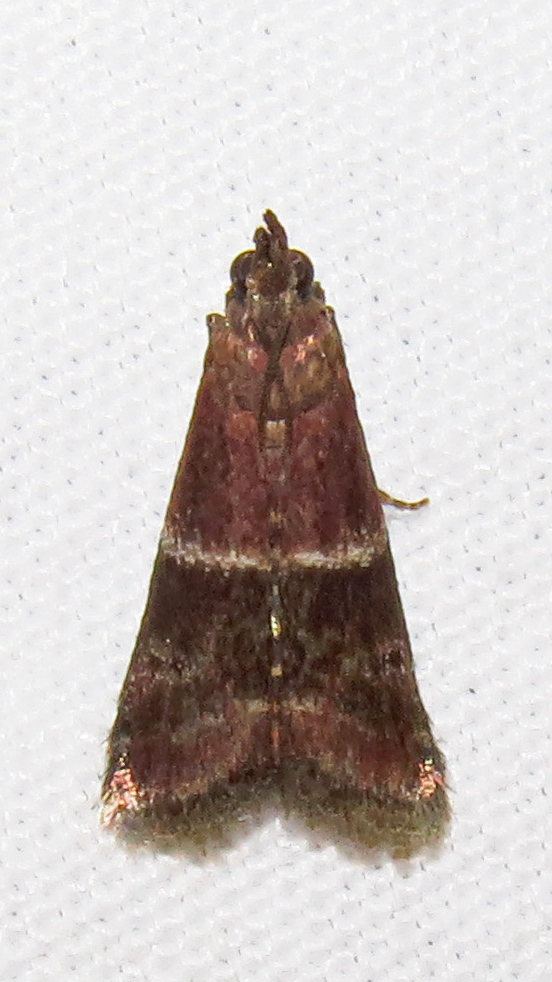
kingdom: Animalia
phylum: Arthropoda
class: Insecta
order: Lepidoptera
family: Pyralidae
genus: Moodna
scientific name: Moodna ostrinella
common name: Darker moodna moth
